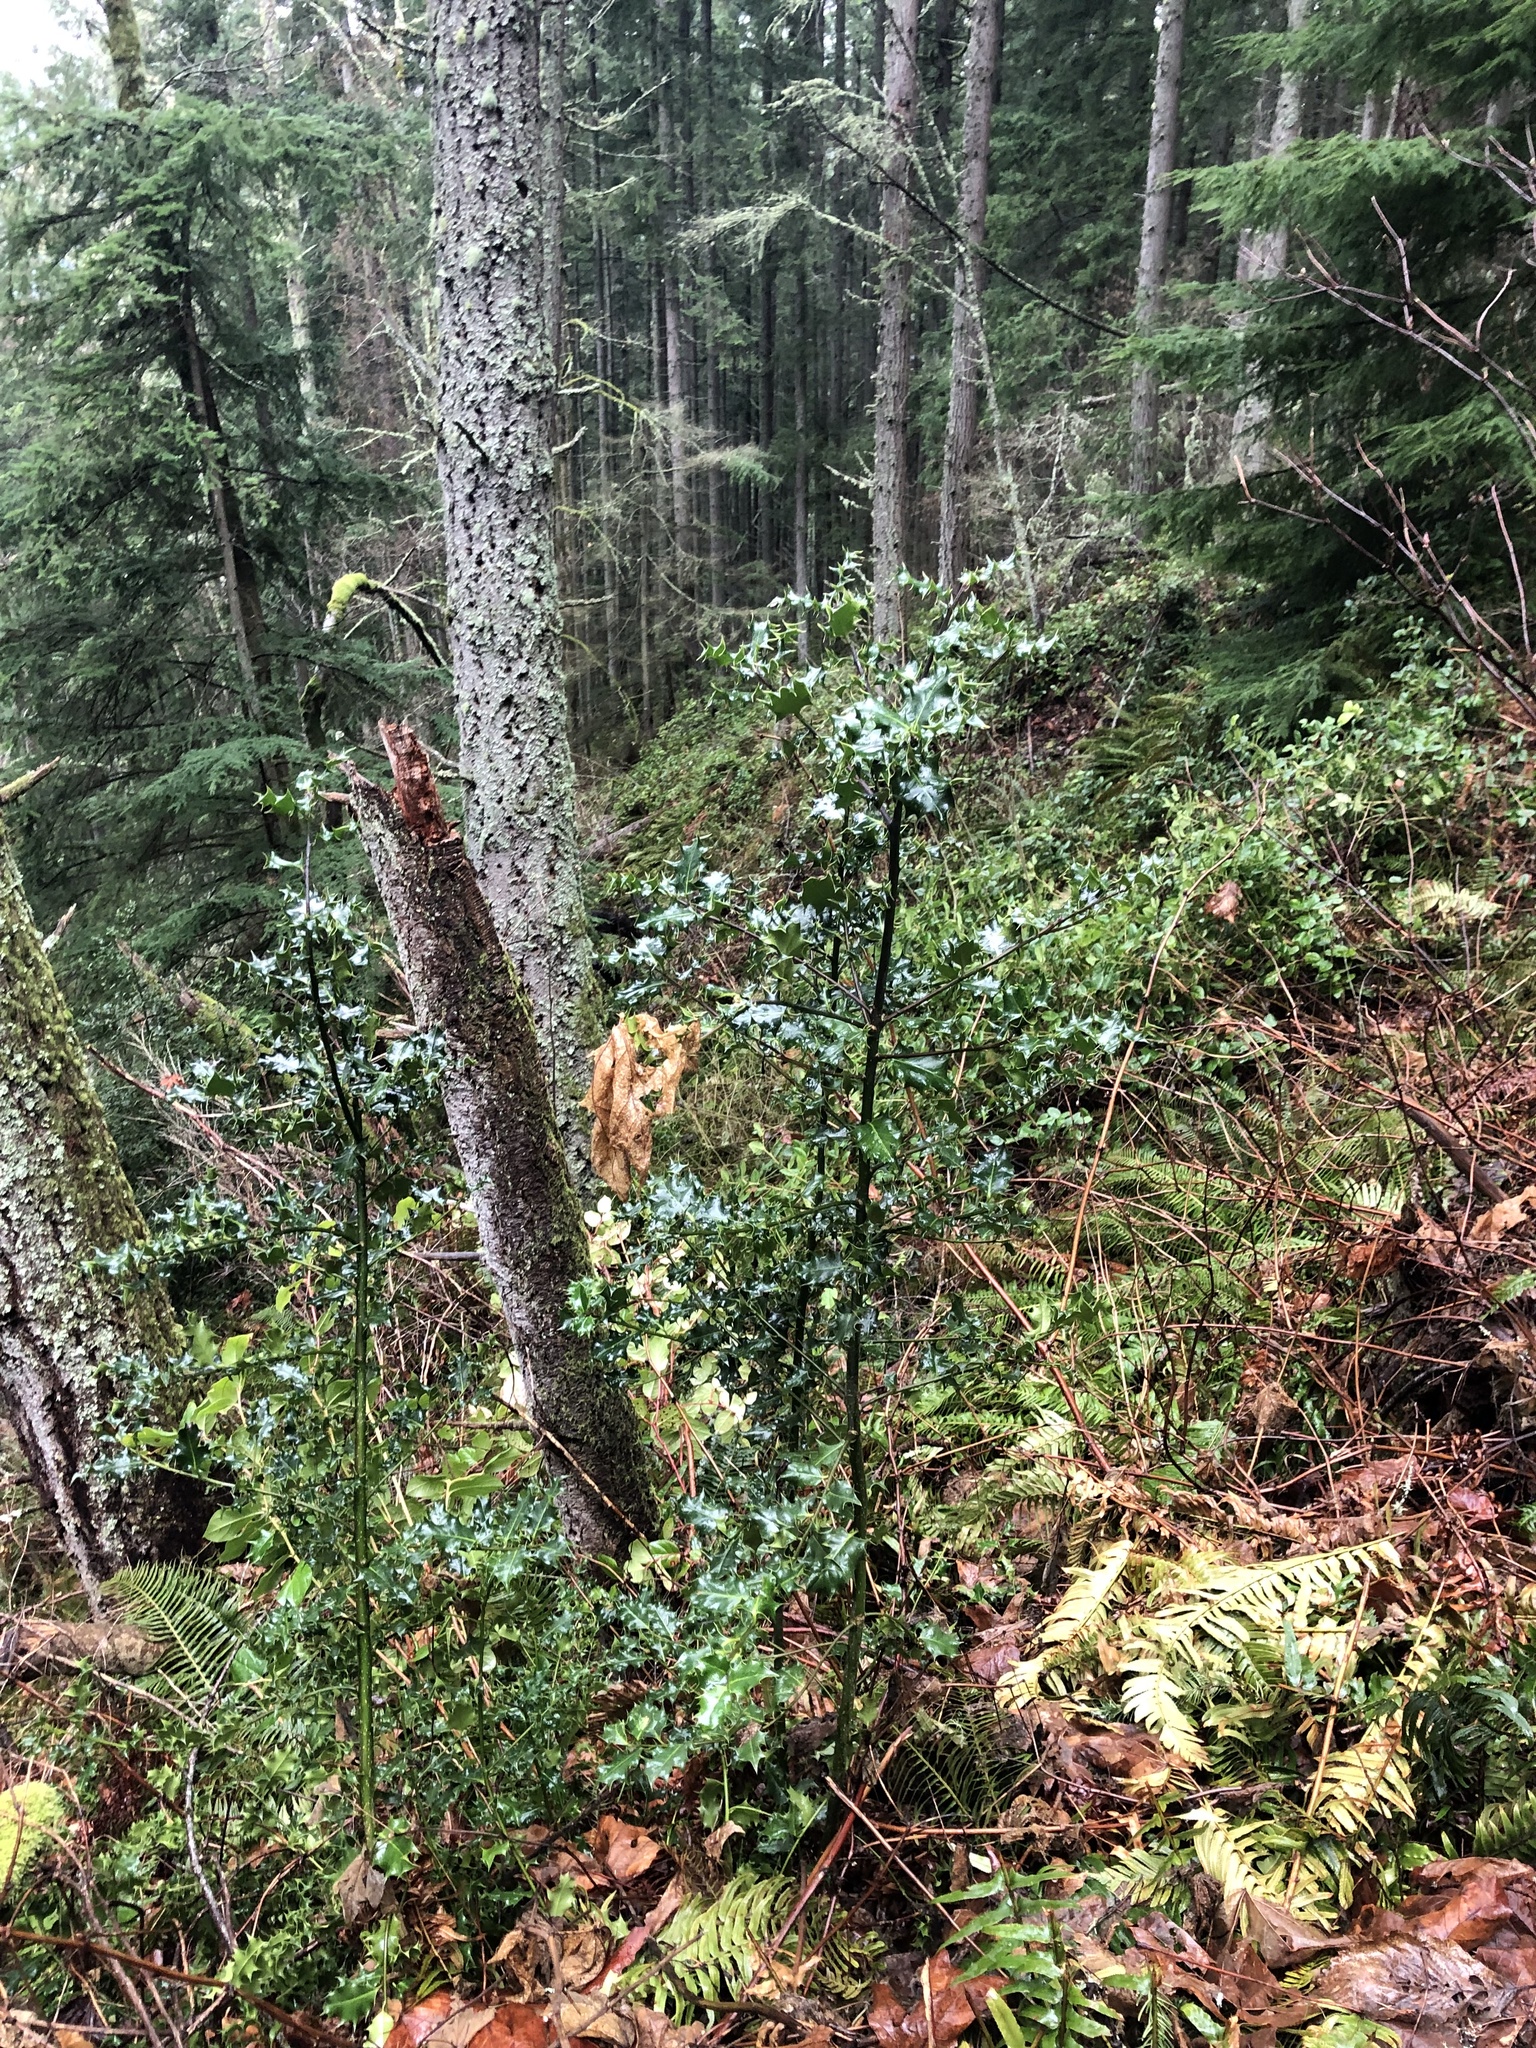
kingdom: Plantae
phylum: Tracheophyta
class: Magnoliopsida
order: Aquifoliales
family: Aquifoliaceae
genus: Ilex
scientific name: Ilex aquifolium
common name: English holly
